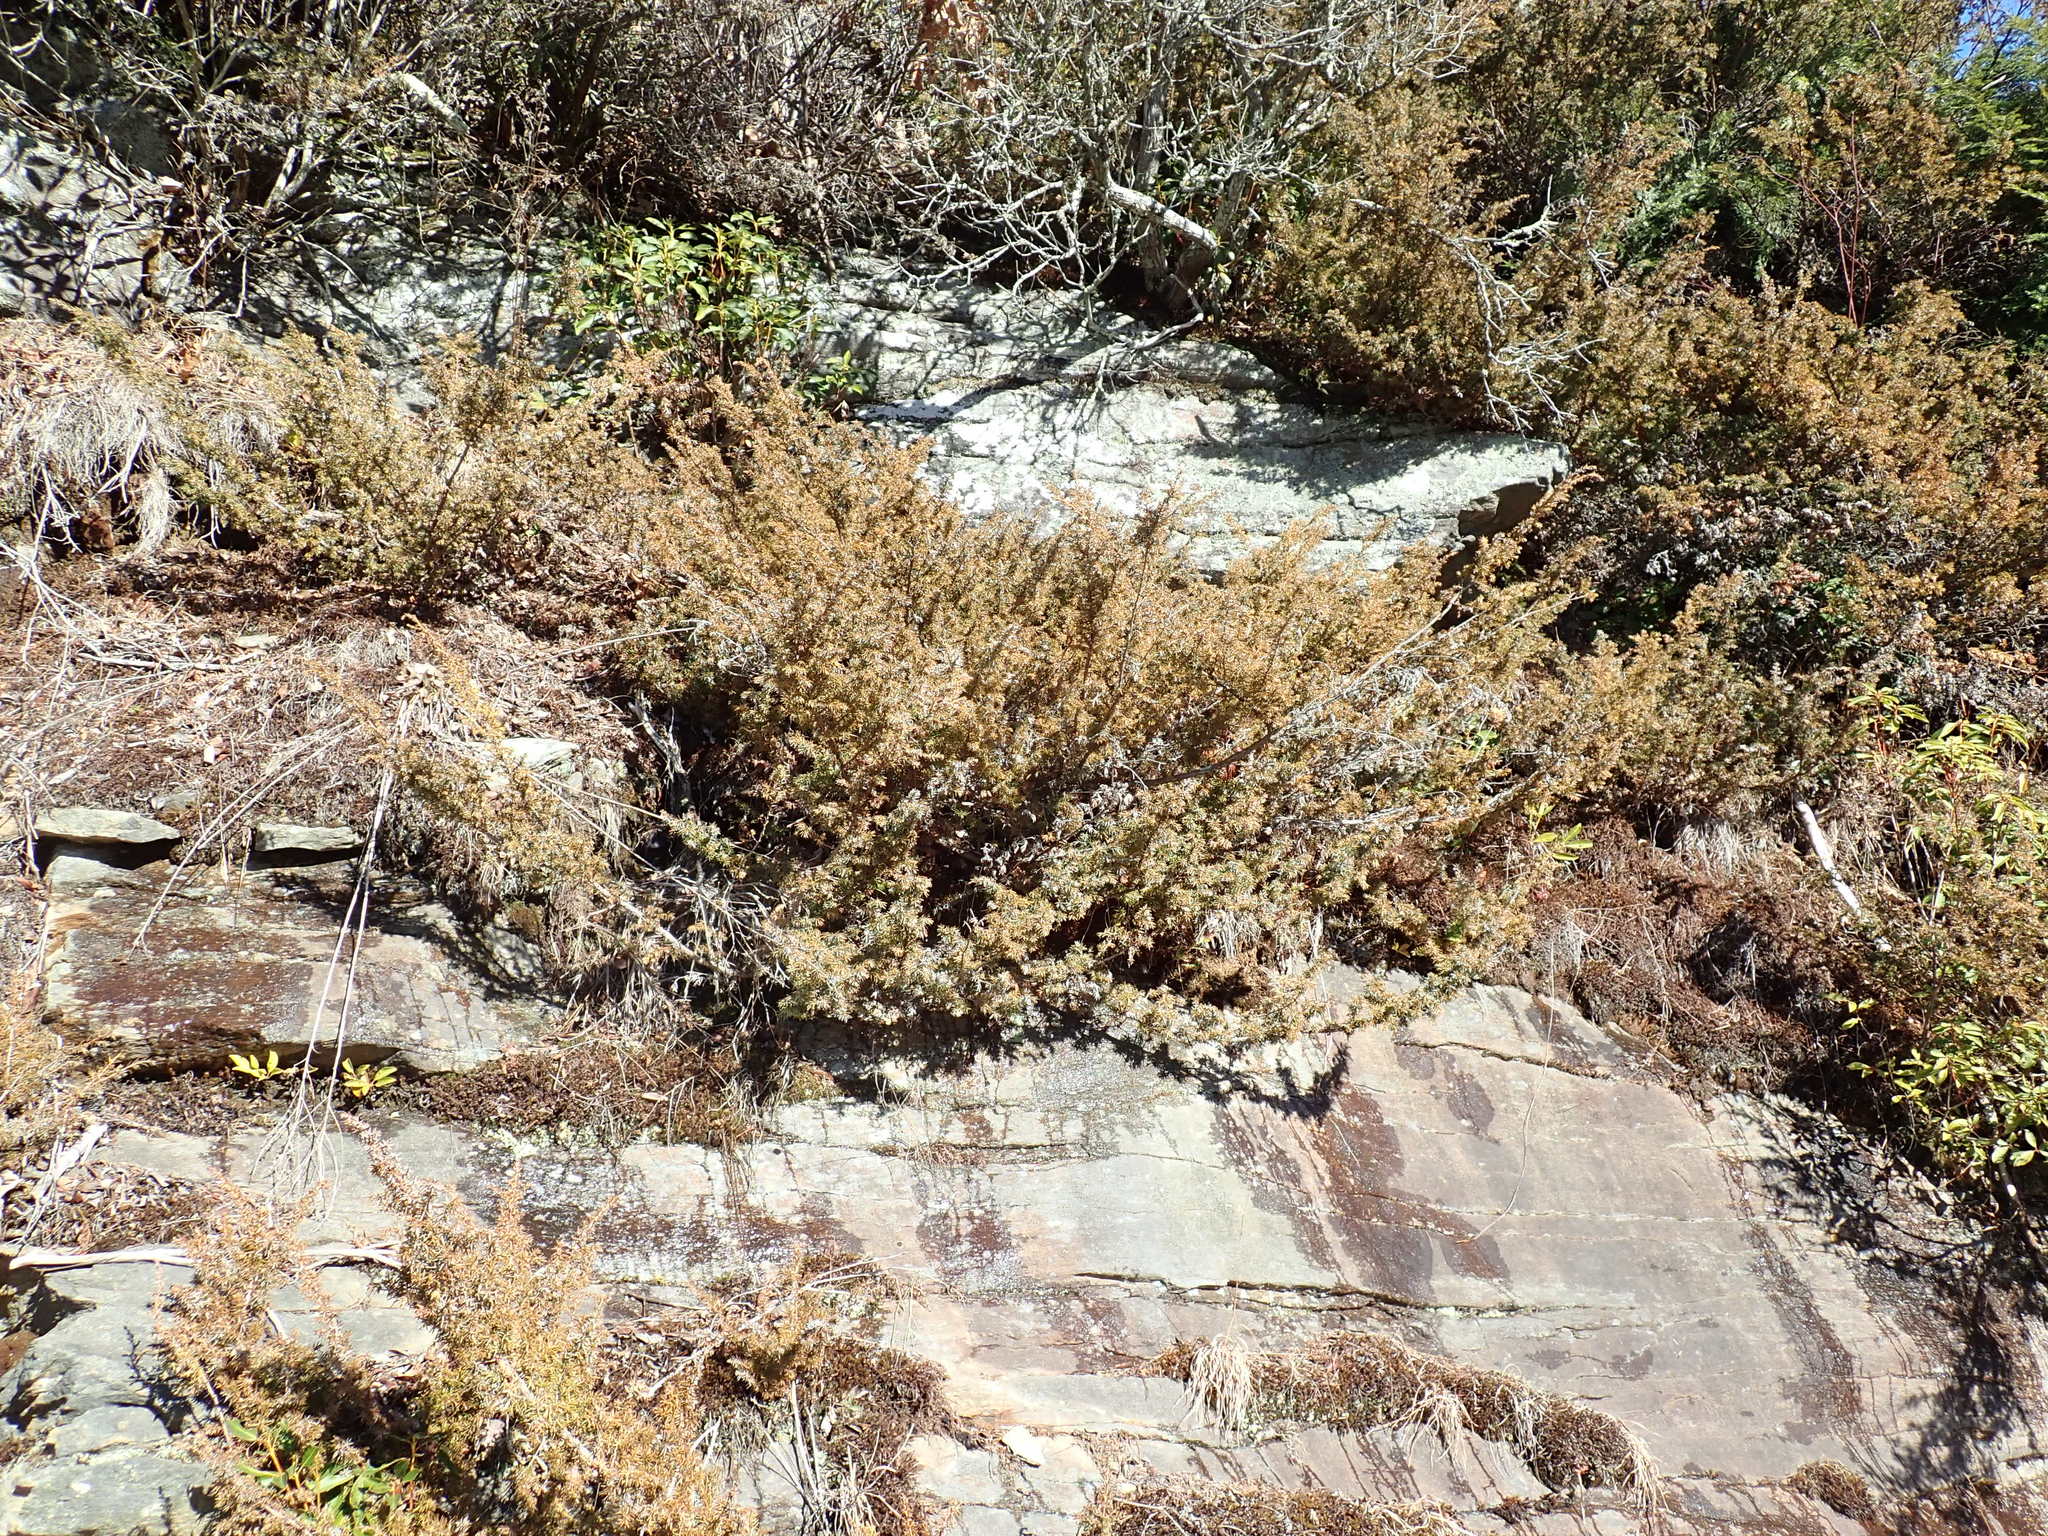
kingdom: Plantae
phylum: Tracheophyta
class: Pinopsida
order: Pinales
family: Cupressaceae
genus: Juniperus
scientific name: Juniperus communis
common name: Common juniper
